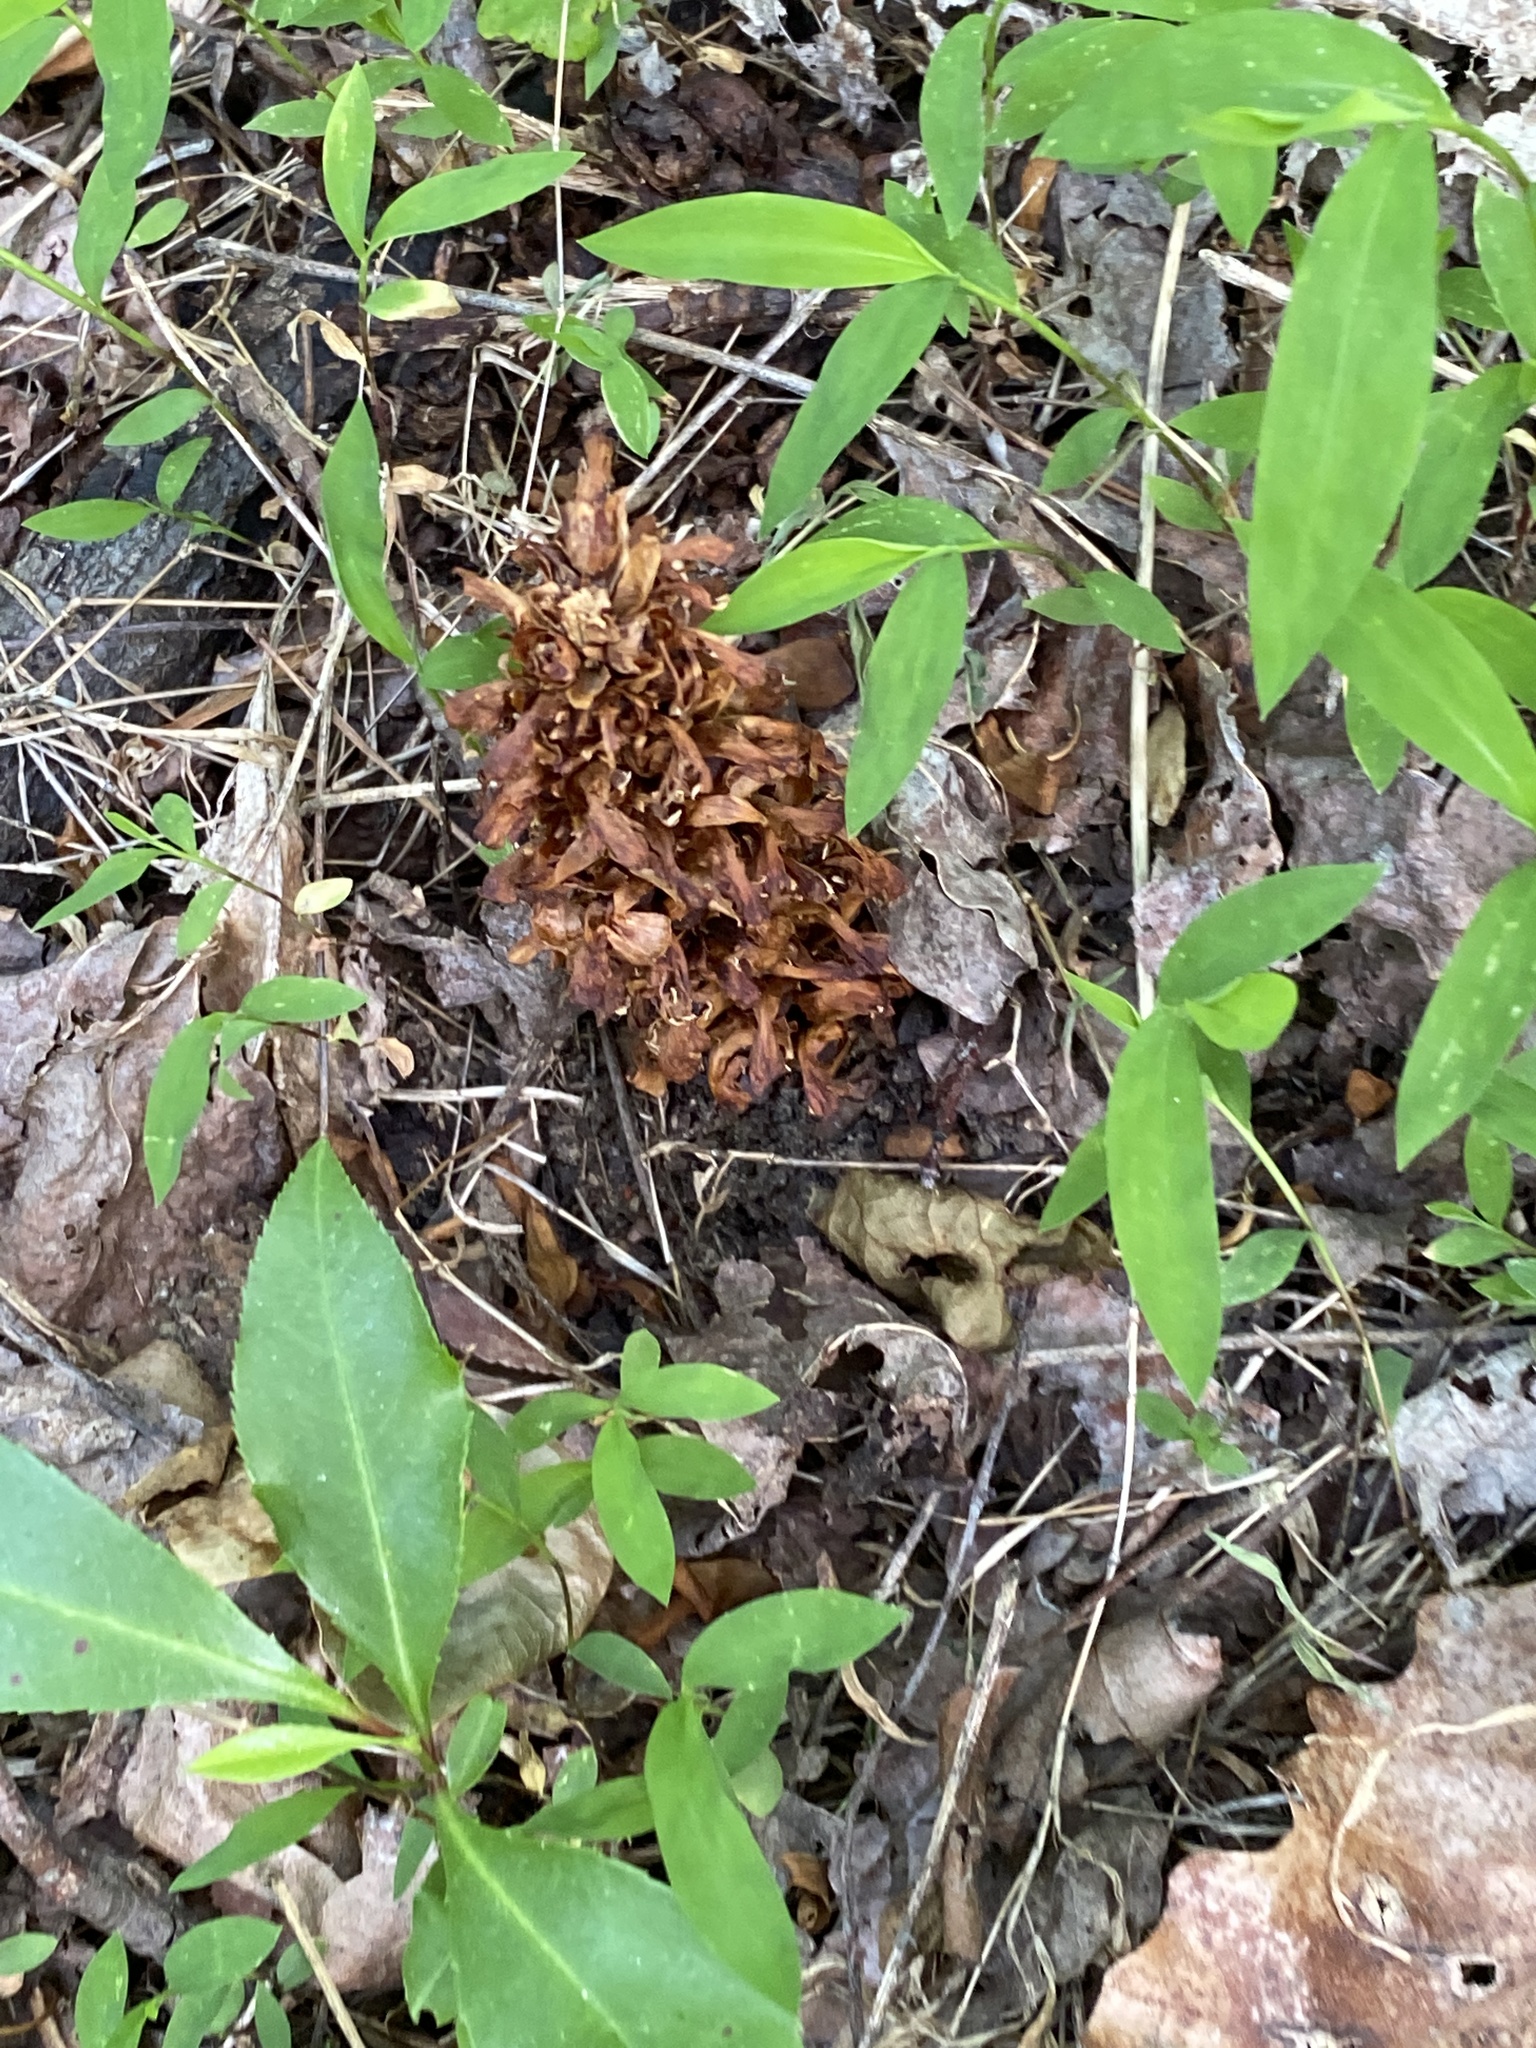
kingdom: Plantae
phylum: Tracheophyta
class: Magnoliopsida
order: Lamiales
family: Orobanchaceae
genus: Conopholis
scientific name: Conopholis americana
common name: American cancer-root
